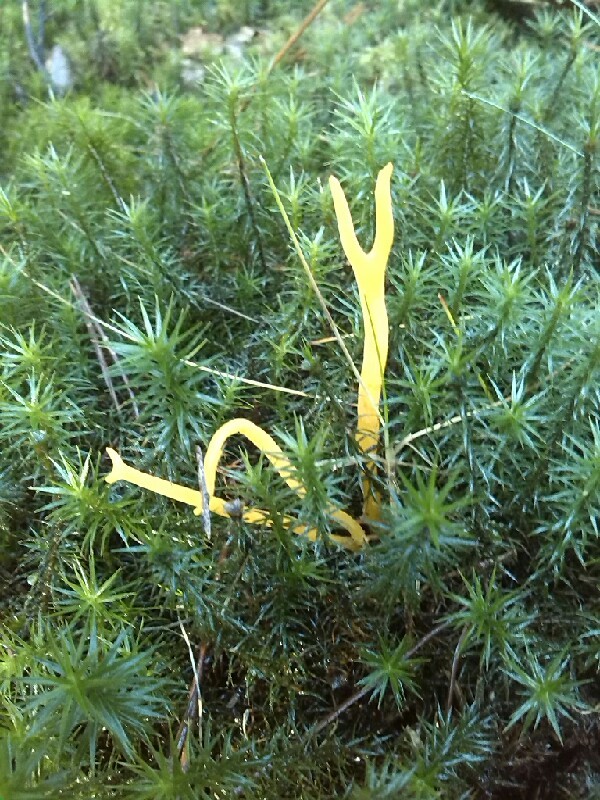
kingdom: Fungi
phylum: Basidiomycota
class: Dacrymycetes
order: Dacrymycetales
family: Dacrymycetaceae
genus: Calocera
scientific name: Calocera viscosa
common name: Yellow stagshorn
